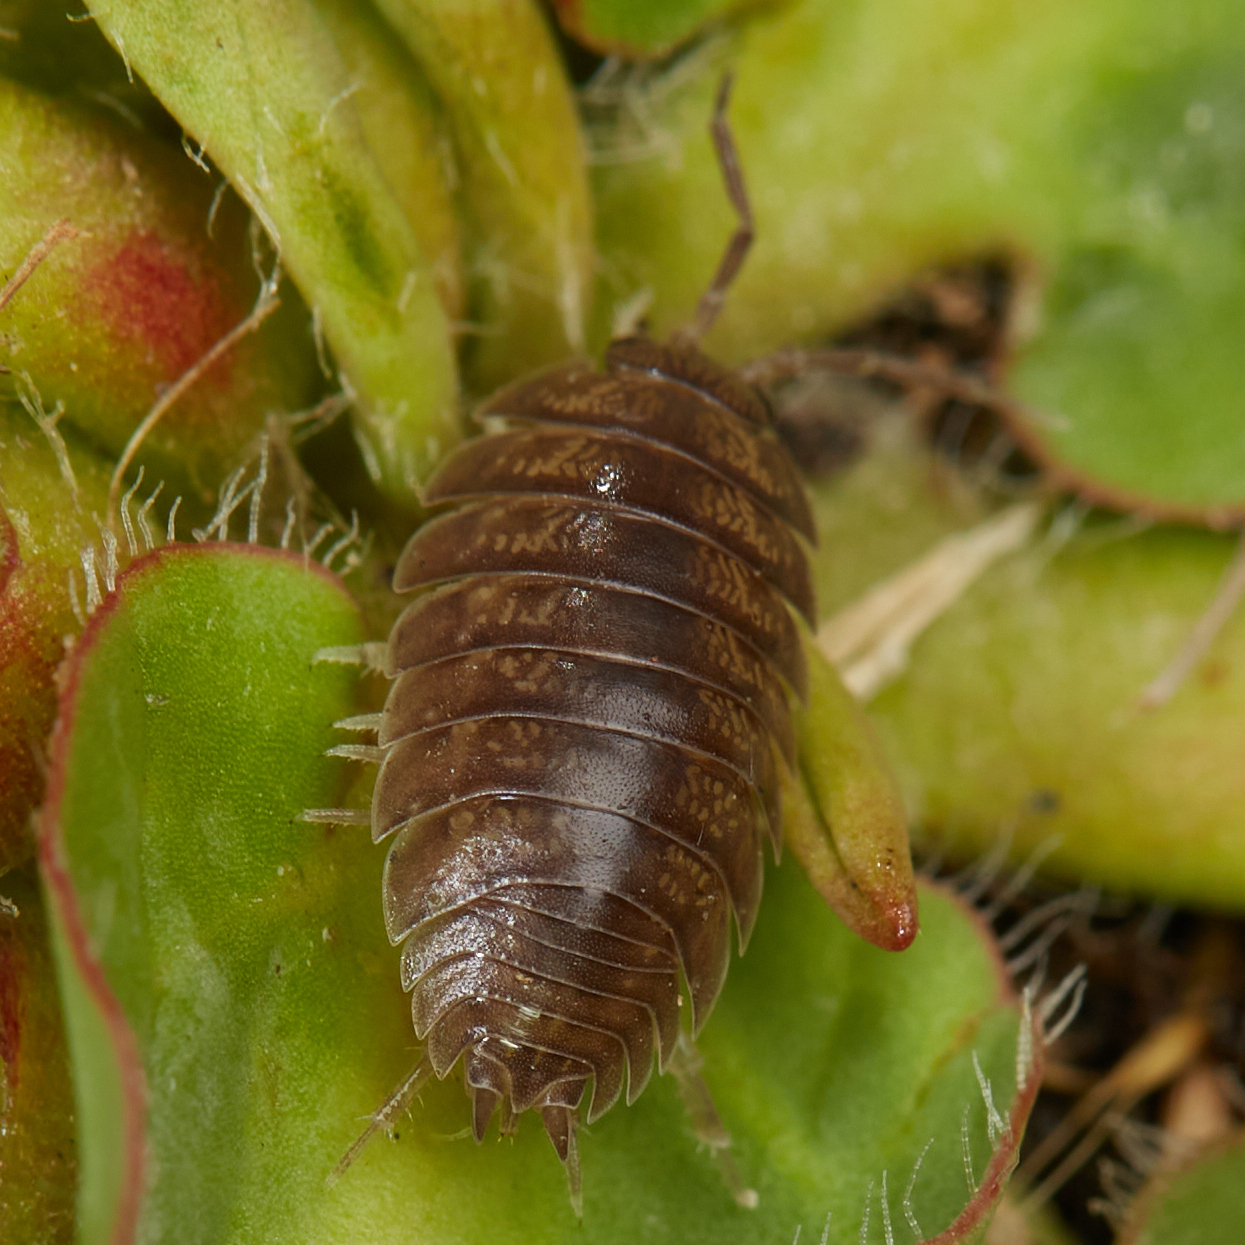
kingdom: Animalia
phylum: Arthropoda
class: Malacostraca
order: Isopoda
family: Porcellionidae
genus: Porcellio
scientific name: Porcellio laevis
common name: Swift woodlouse
